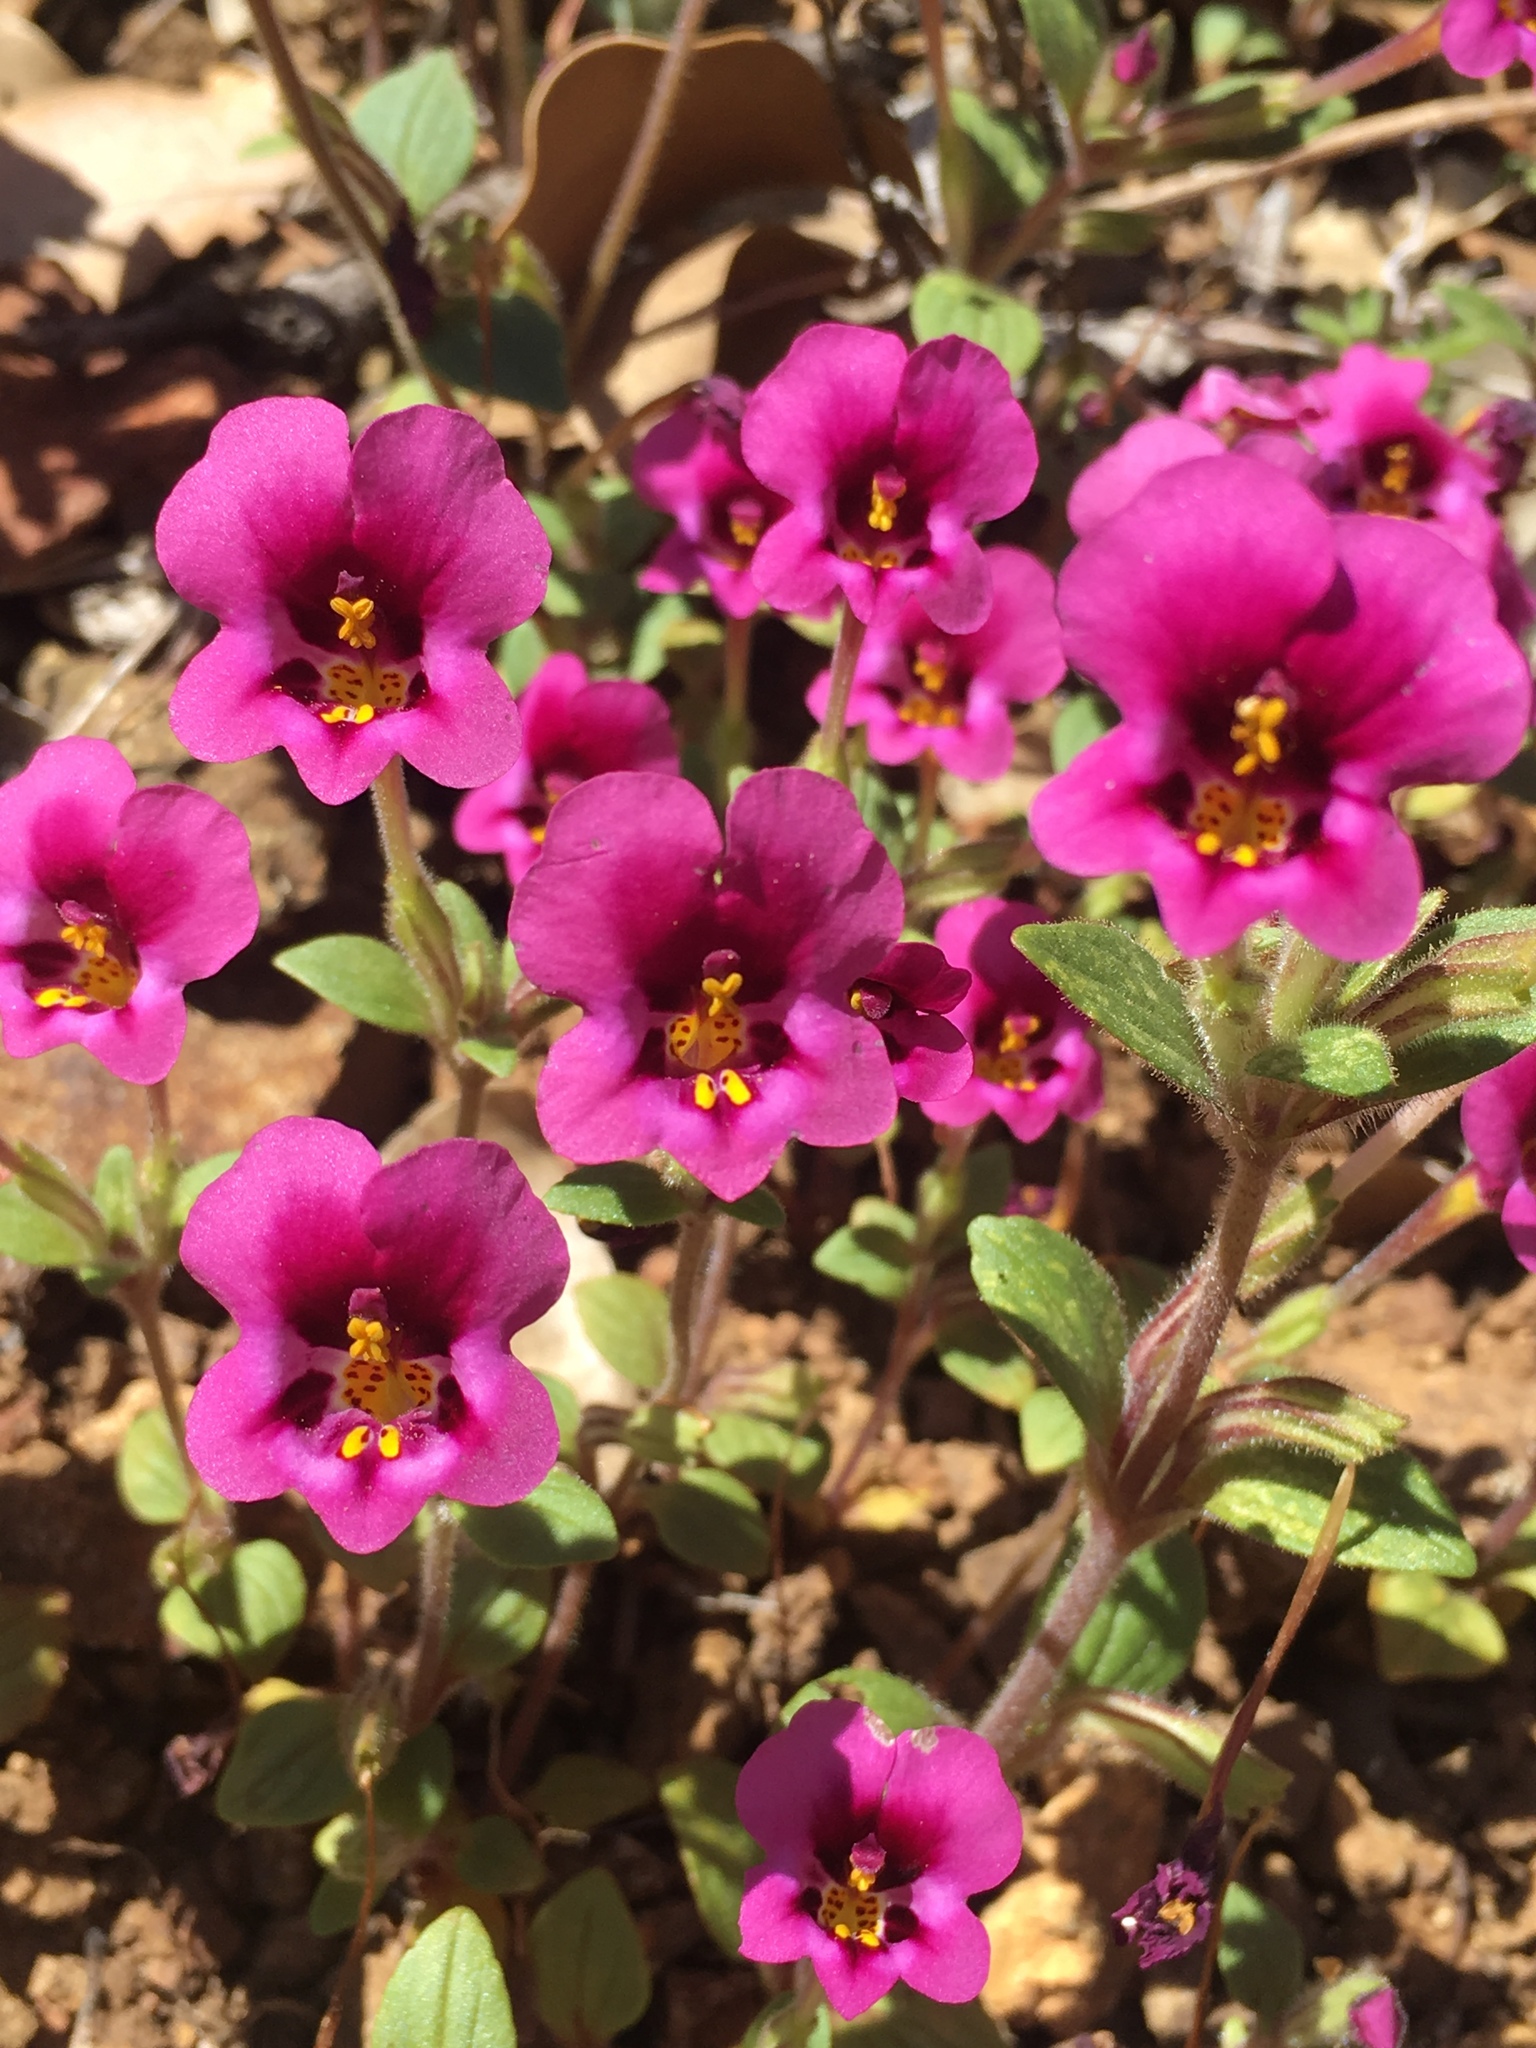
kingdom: Plantae
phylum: Tracheophyta
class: Magnoliopsida
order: Lamiales
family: Phrymaceae
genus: Diplacus
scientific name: Diplacus kelloggii
